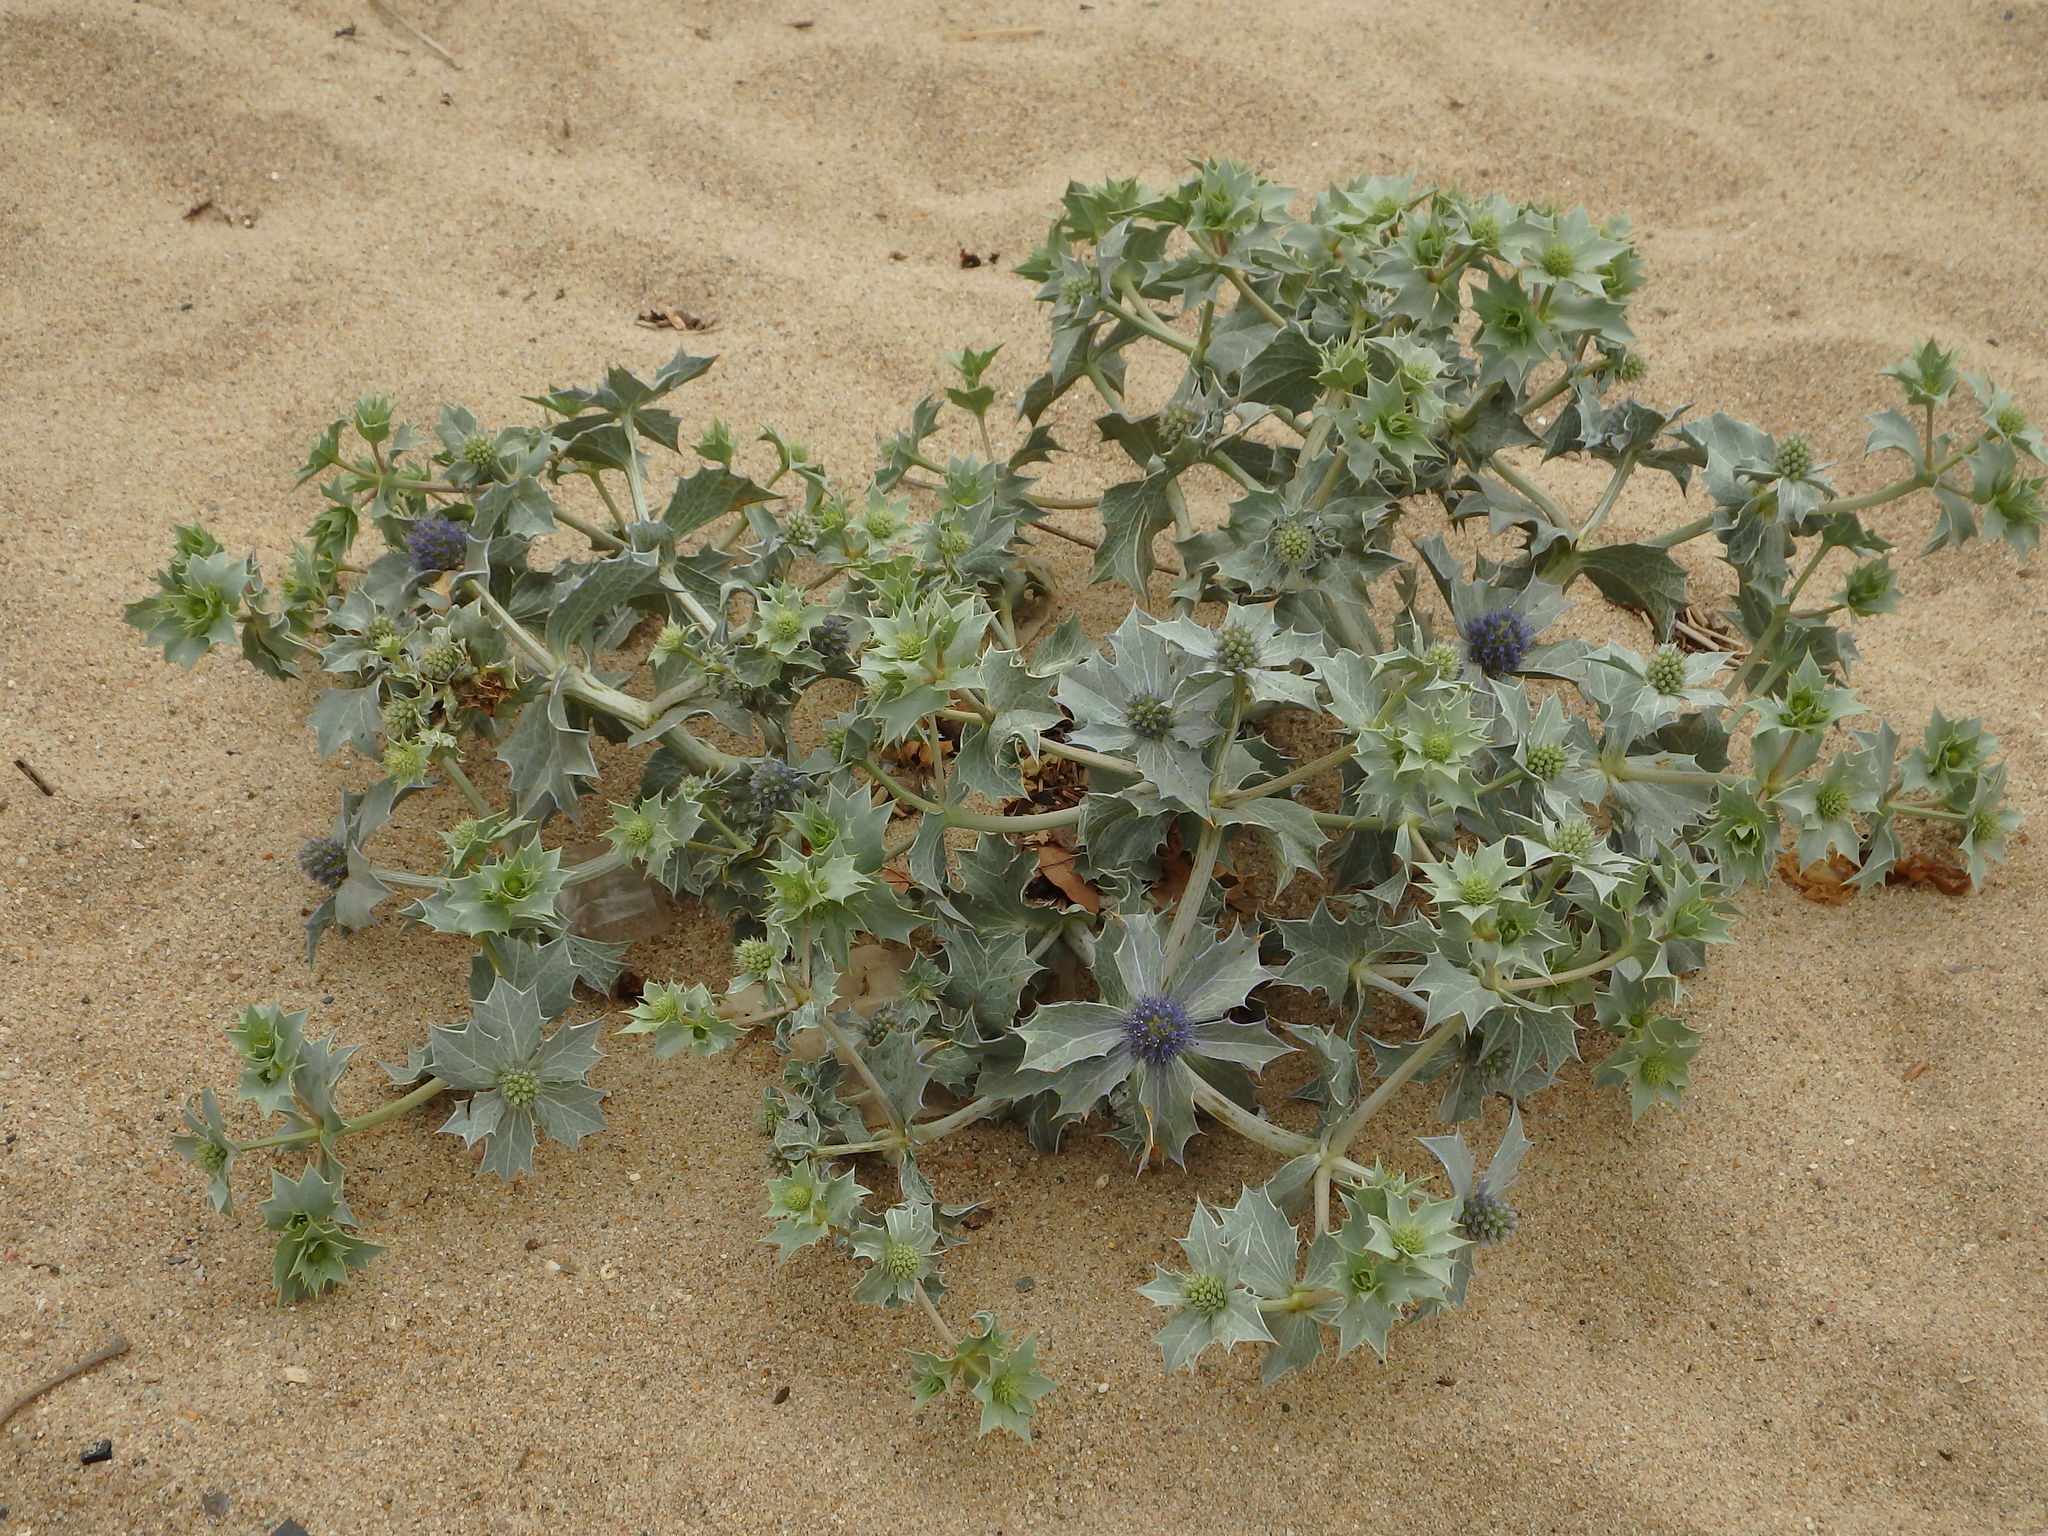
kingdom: Plantae
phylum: Tracheophyta
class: Magnoliopsida
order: Apiales
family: Apiaceae
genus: Eryngium
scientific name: Eryngium maritimum
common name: Sea-holly
